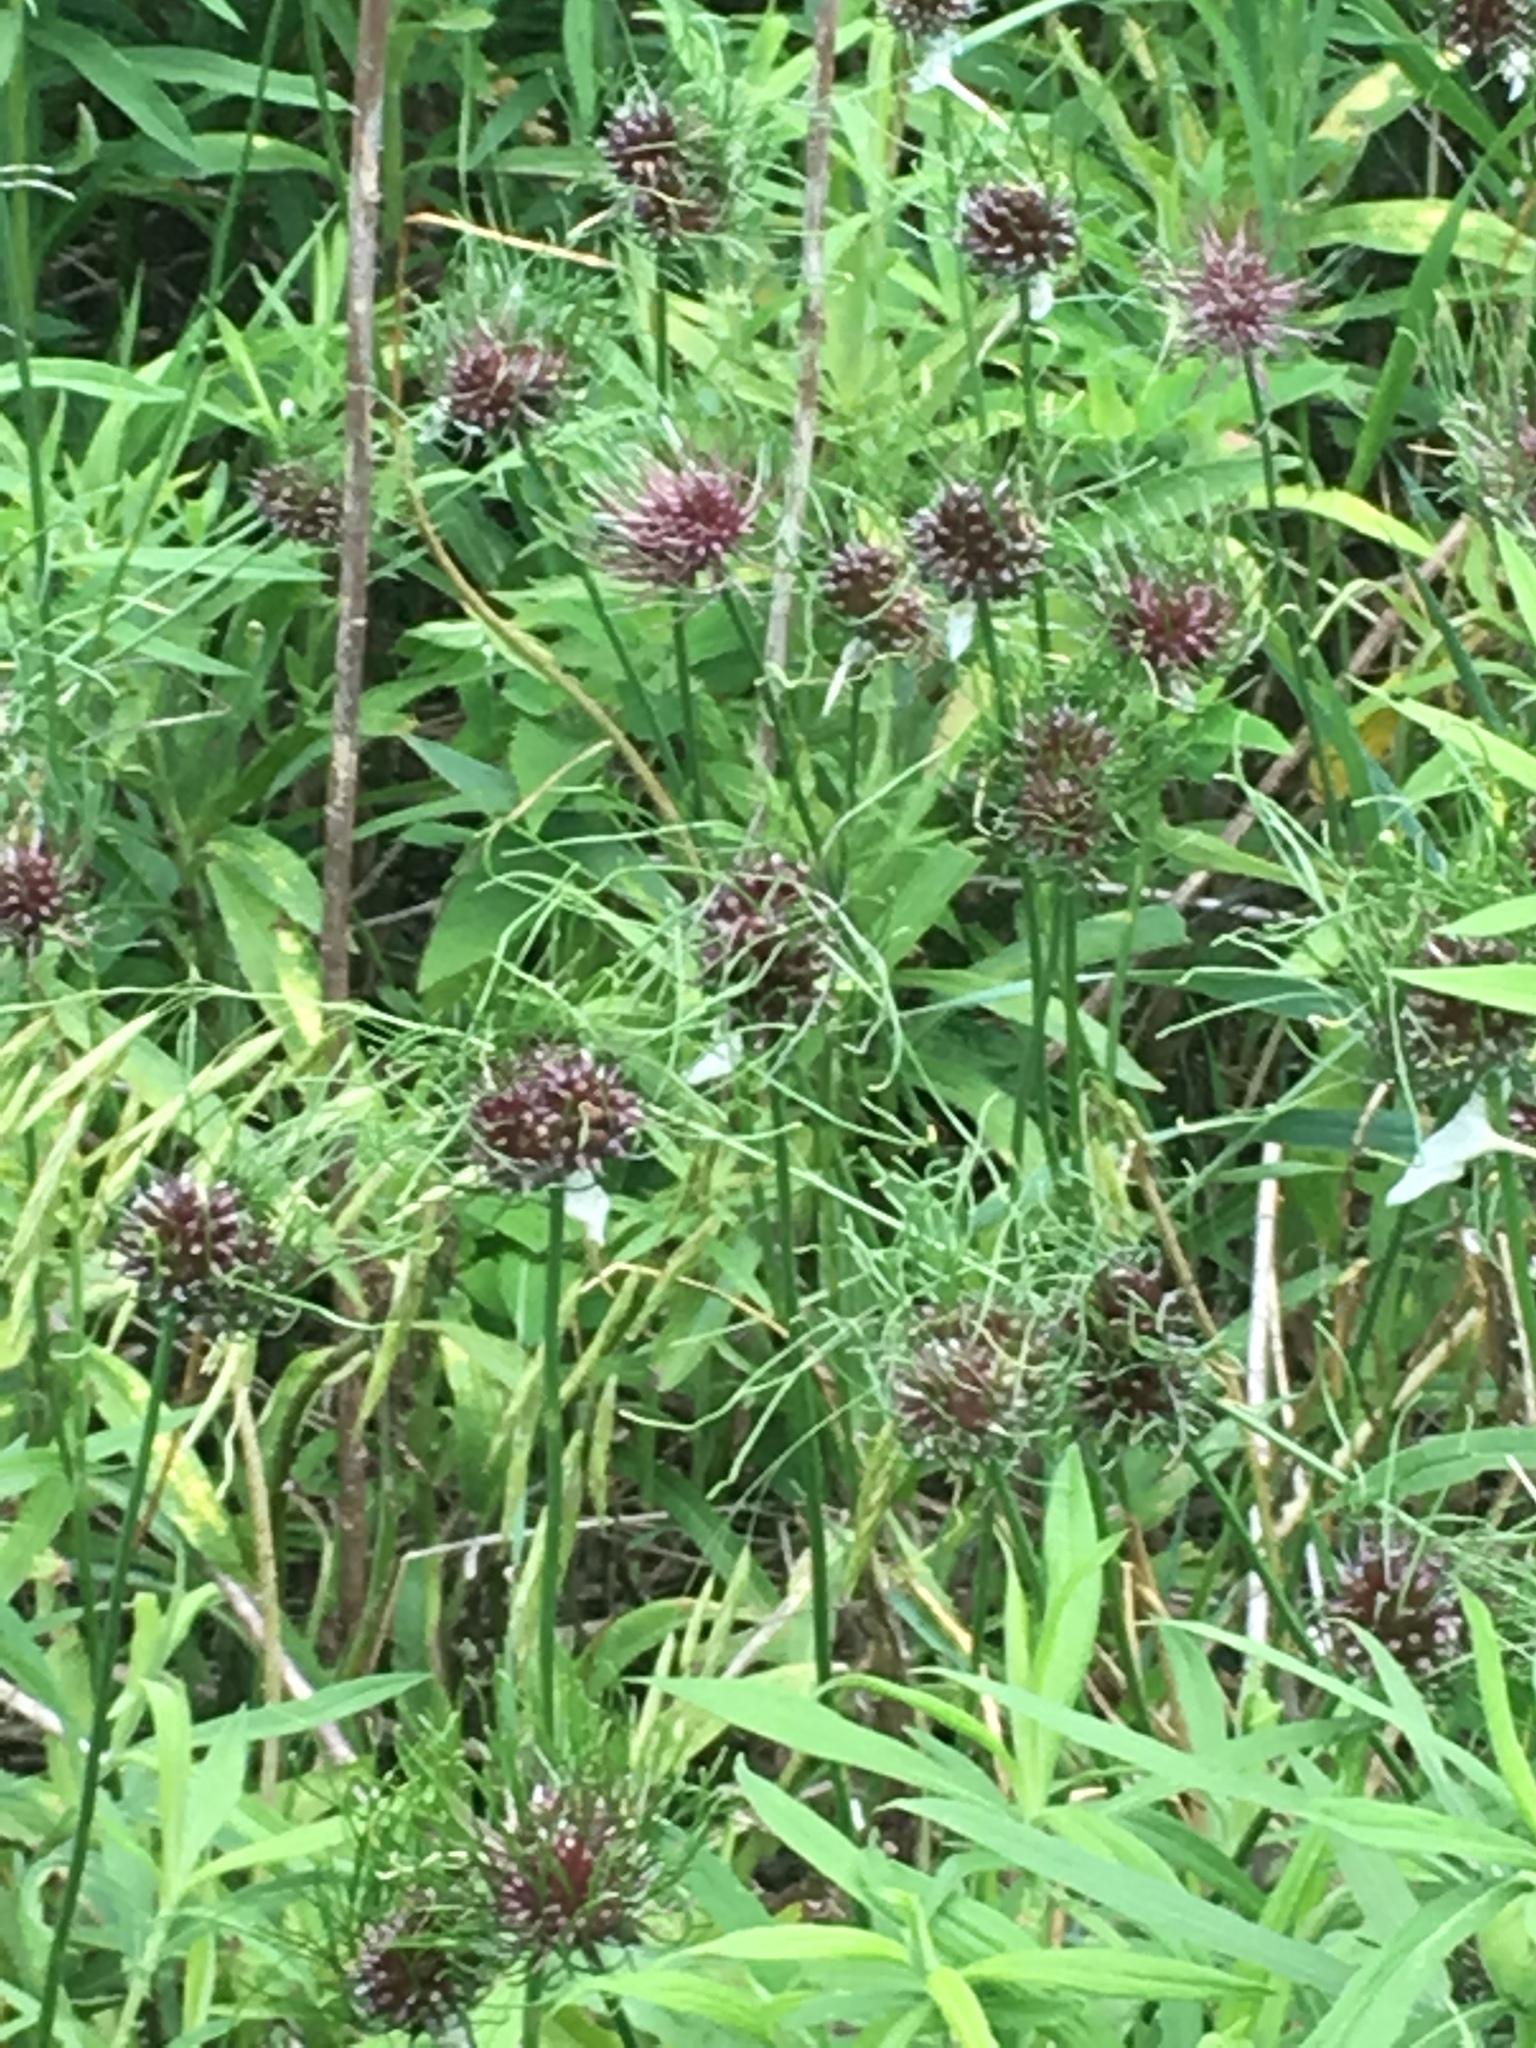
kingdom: Plantae
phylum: Tracheophyta
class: Liliopsida
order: Asparagales
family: Amaryllidaceae
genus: Allium
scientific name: Allium vineale
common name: Crow garlic
